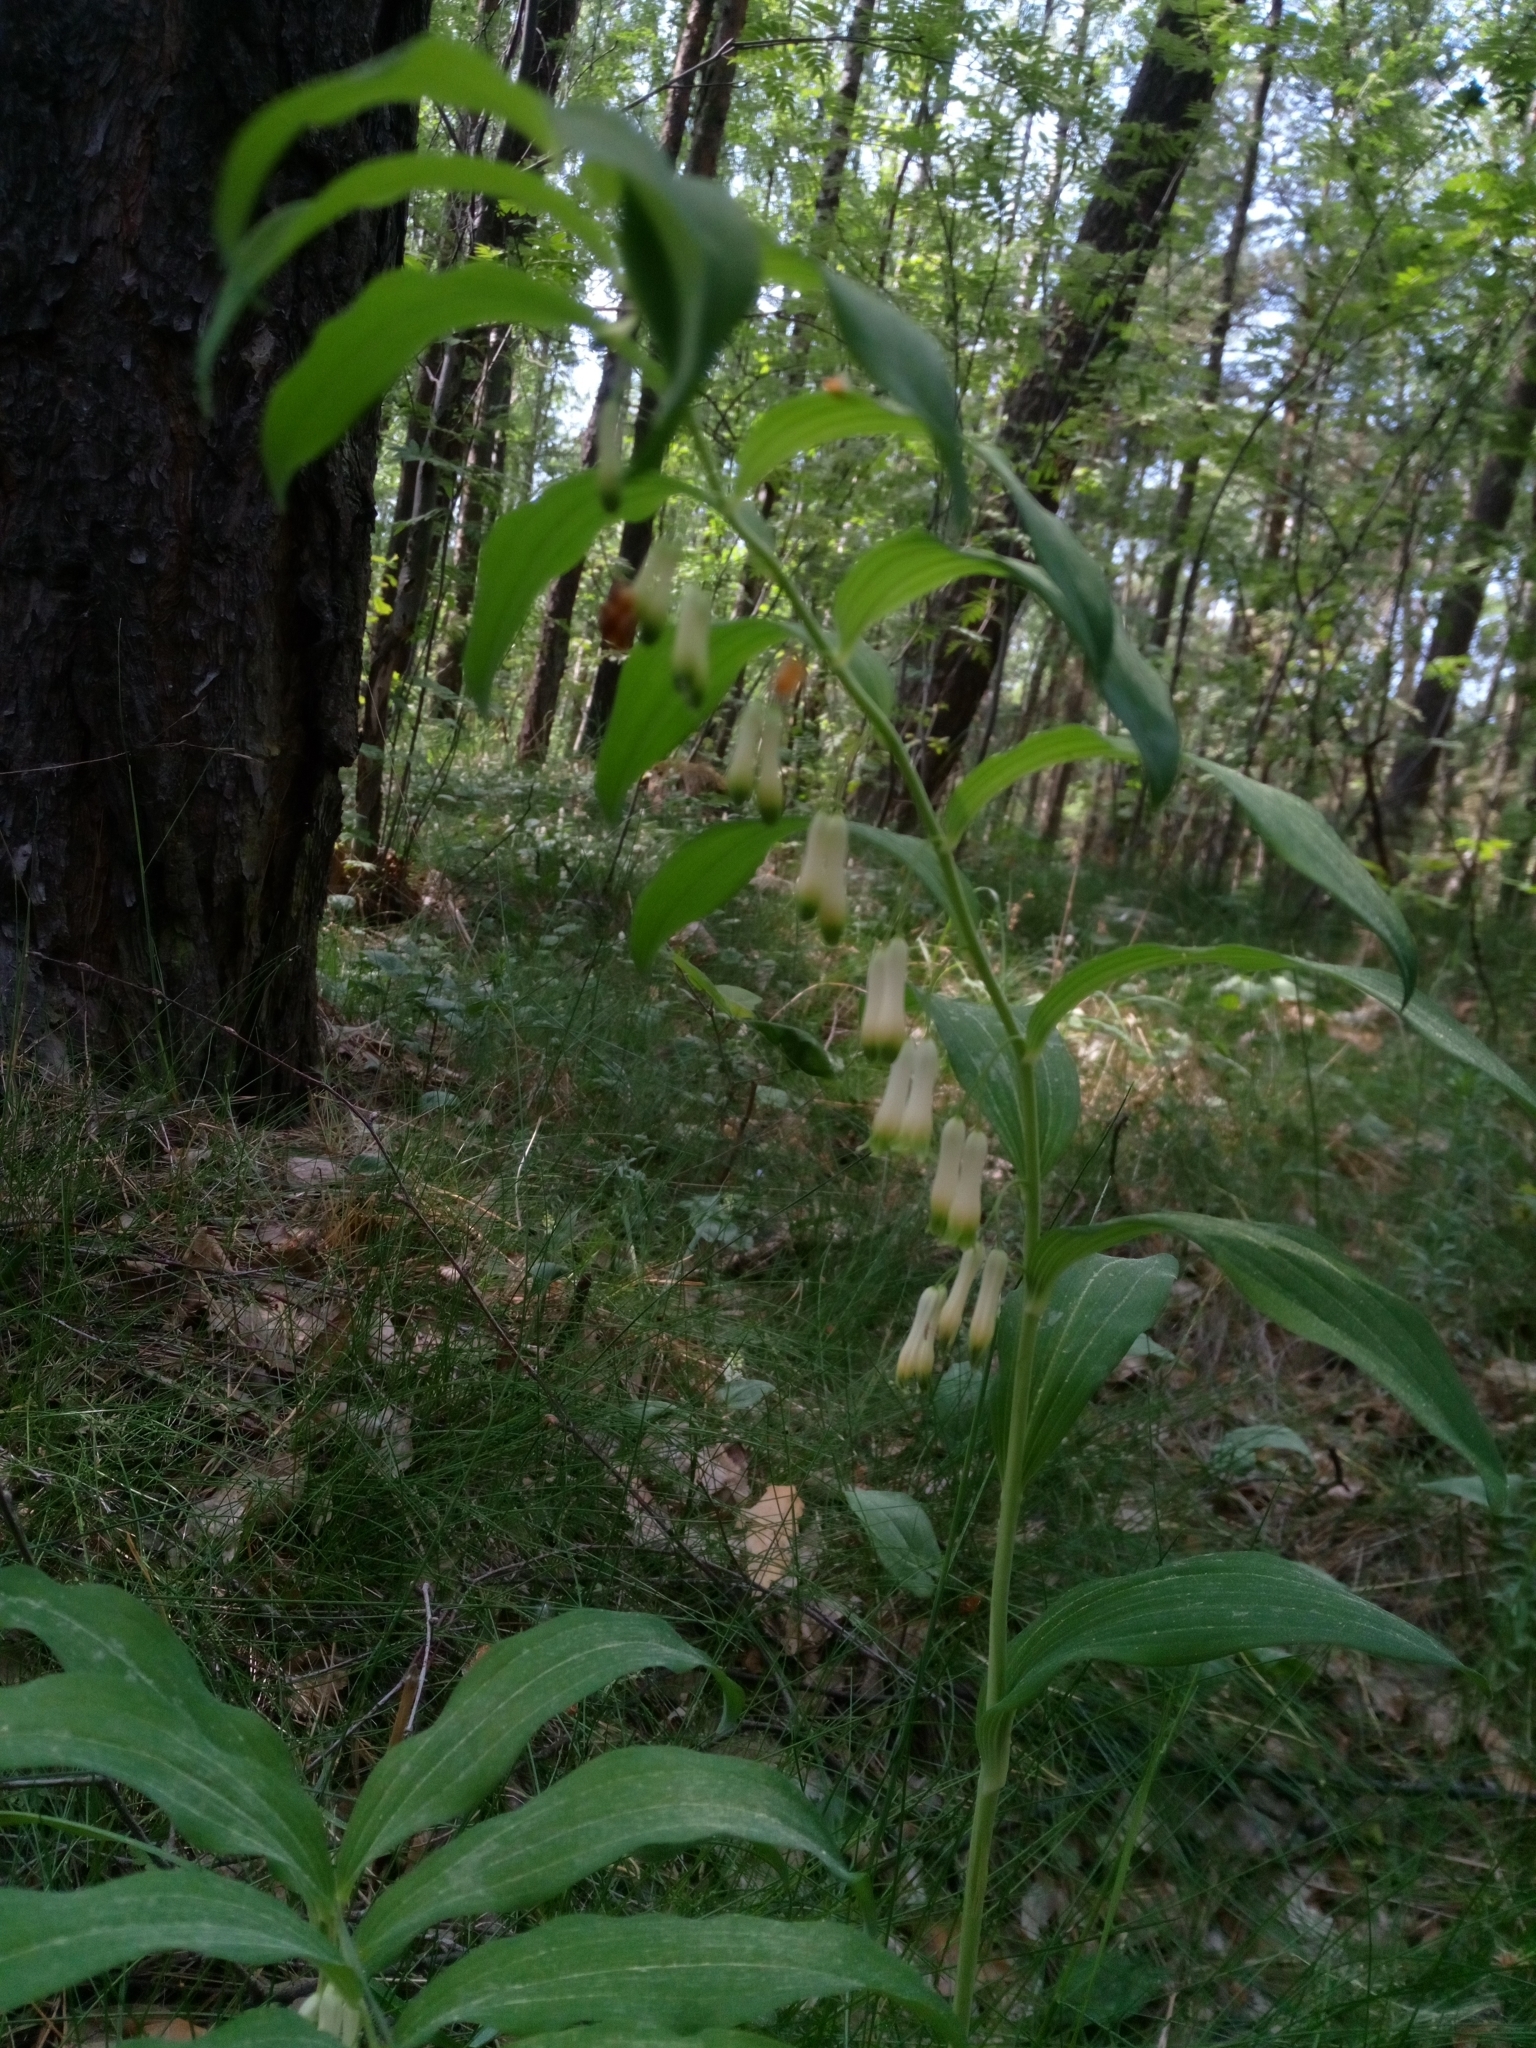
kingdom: Plantae
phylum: Tracheophyta
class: Liliopsida
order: Asparagales
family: Asparagaceae
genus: Polygonatum
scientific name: Polygonatum multiflorum
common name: Solomon's-seal
